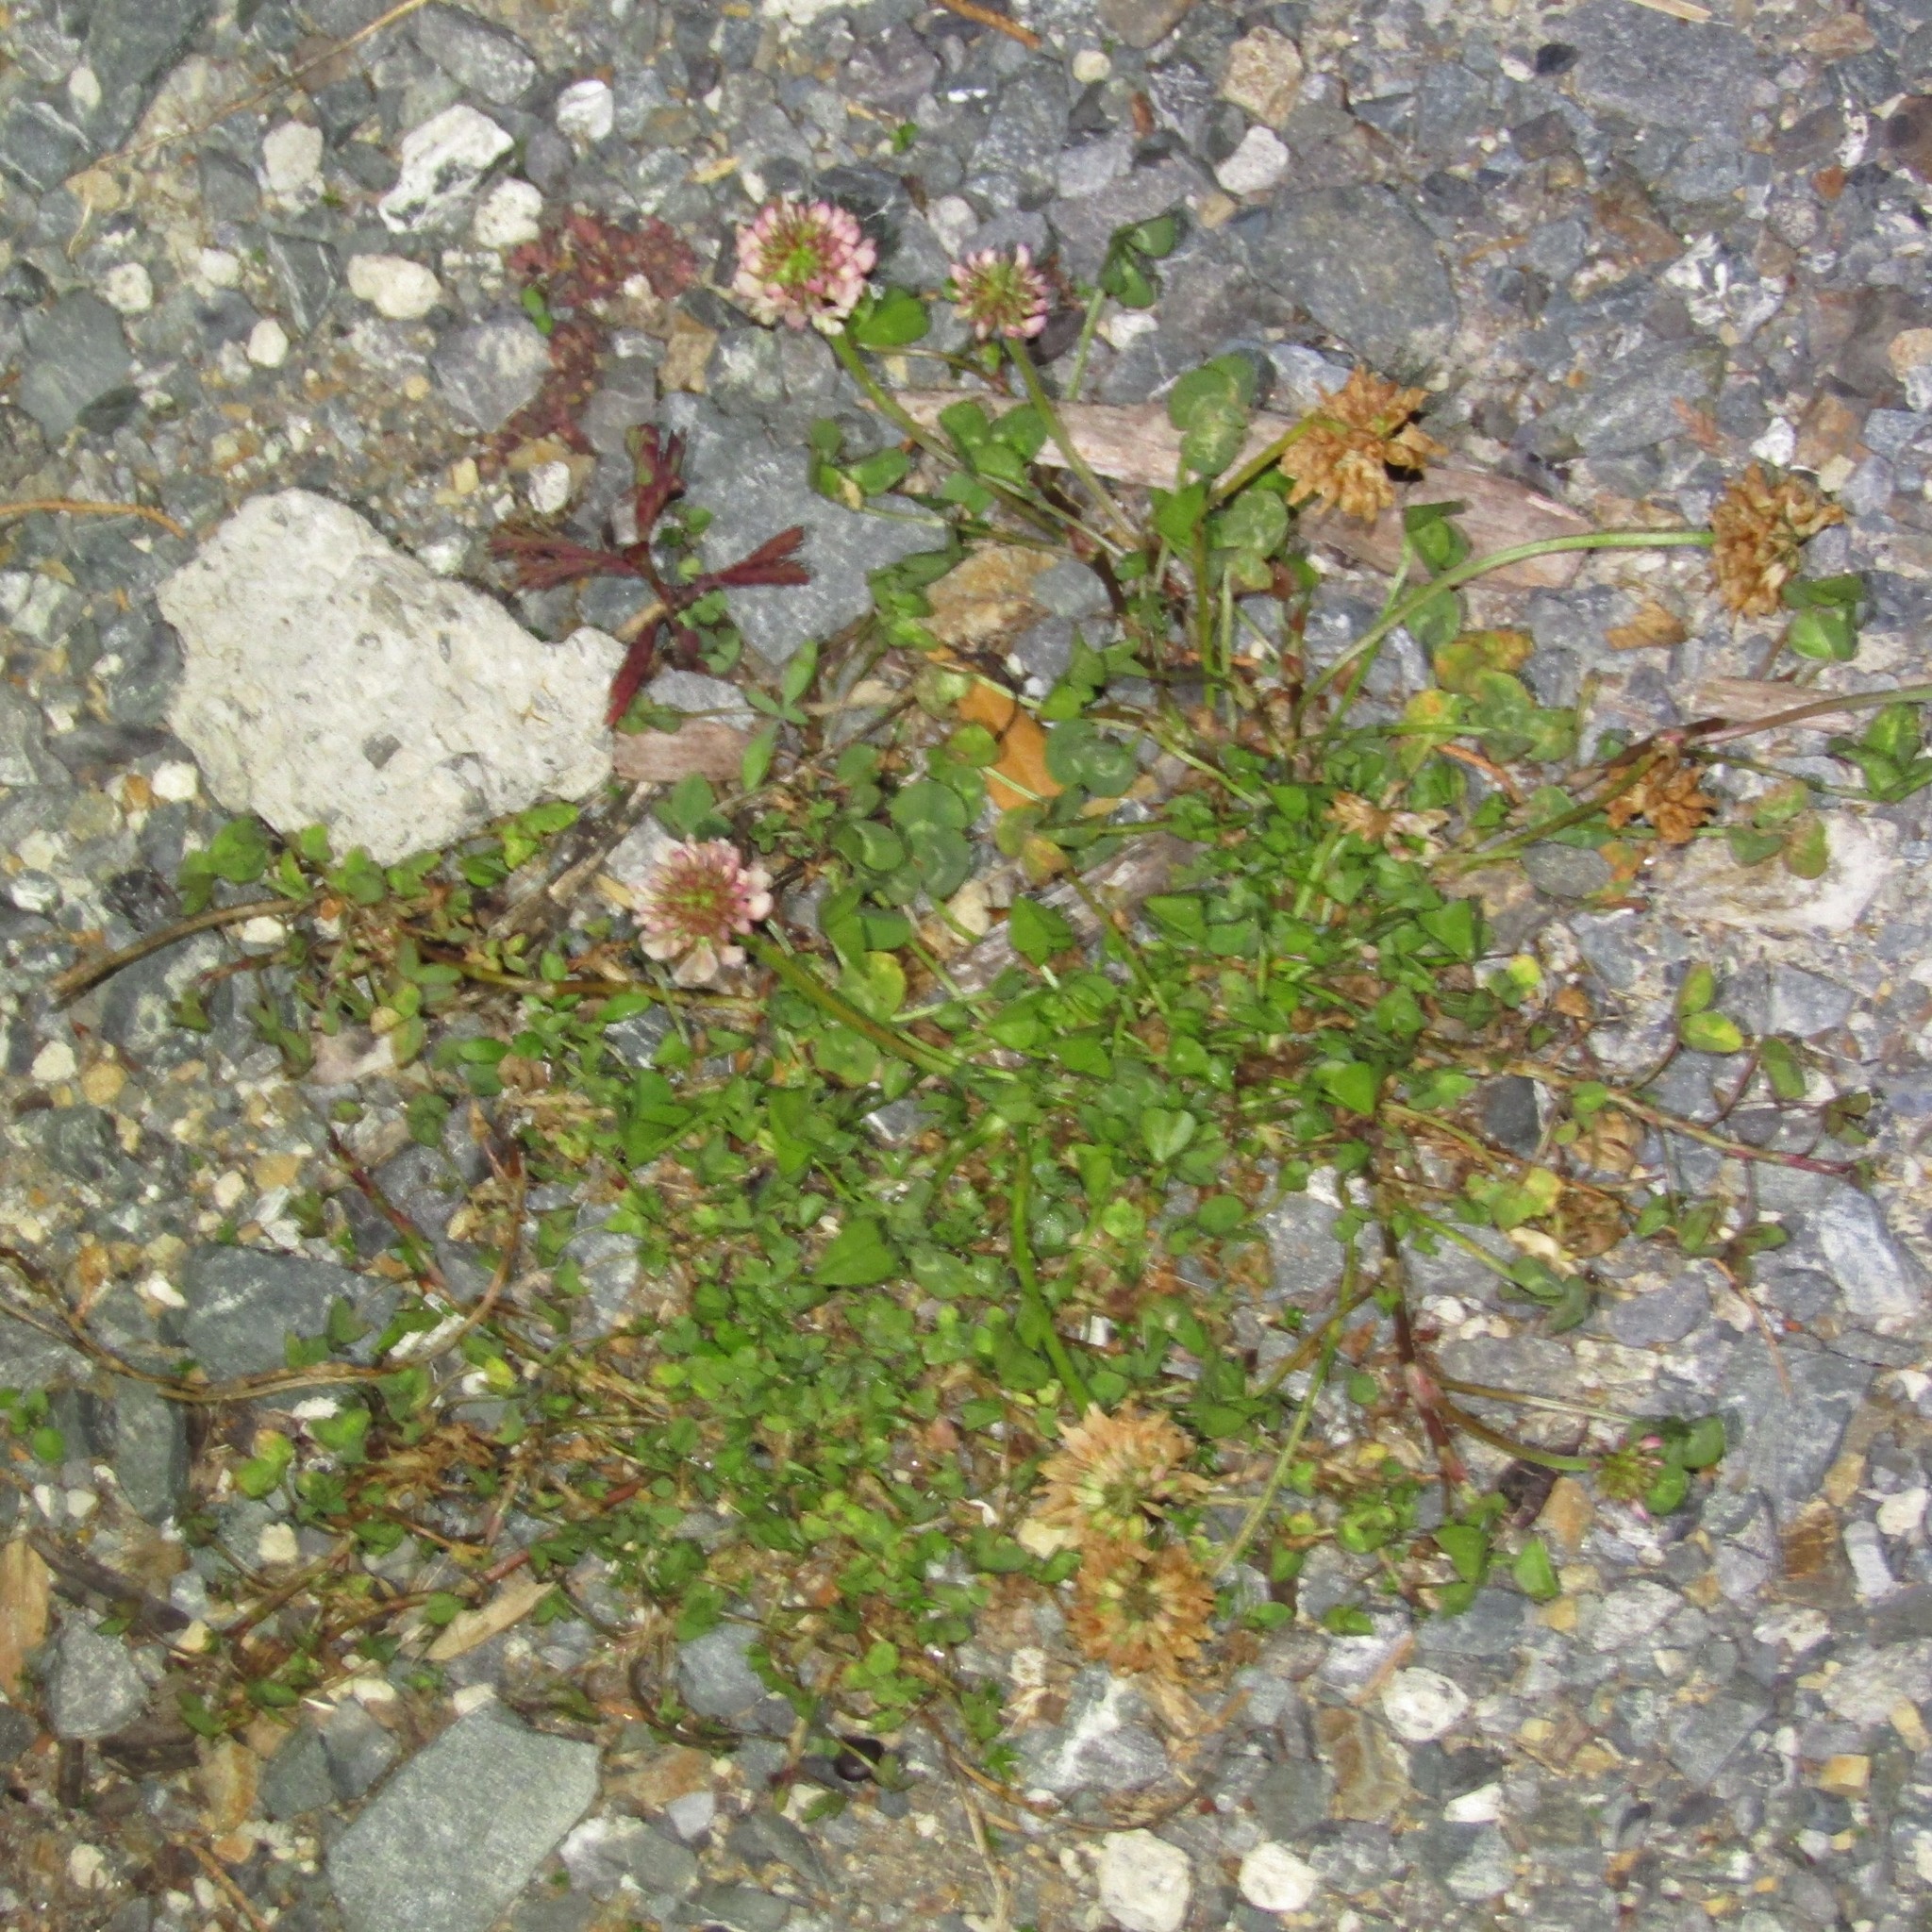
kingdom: Plantae
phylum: Tracheophyta
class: Magnoliopsida
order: Fabales
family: Fabaceae
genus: Trifolium
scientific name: Trifolium repens
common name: White clover
